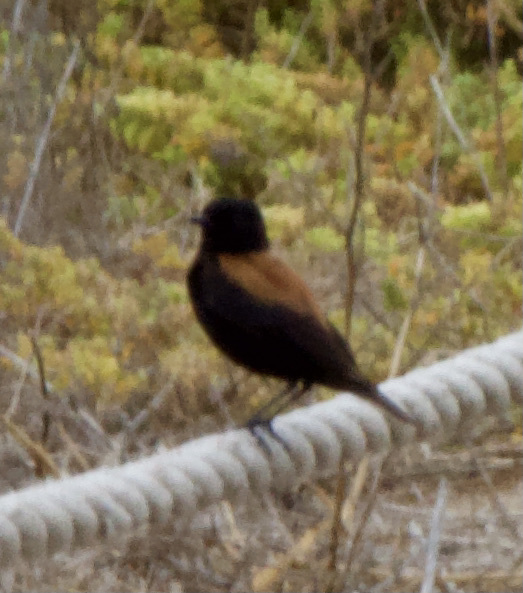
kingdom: Animalia
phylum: Chordata
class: Aves
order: Passeriformes
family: Tyrannidae
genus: Lessonia
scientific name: Lessonia rufa
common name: Austral negrito
